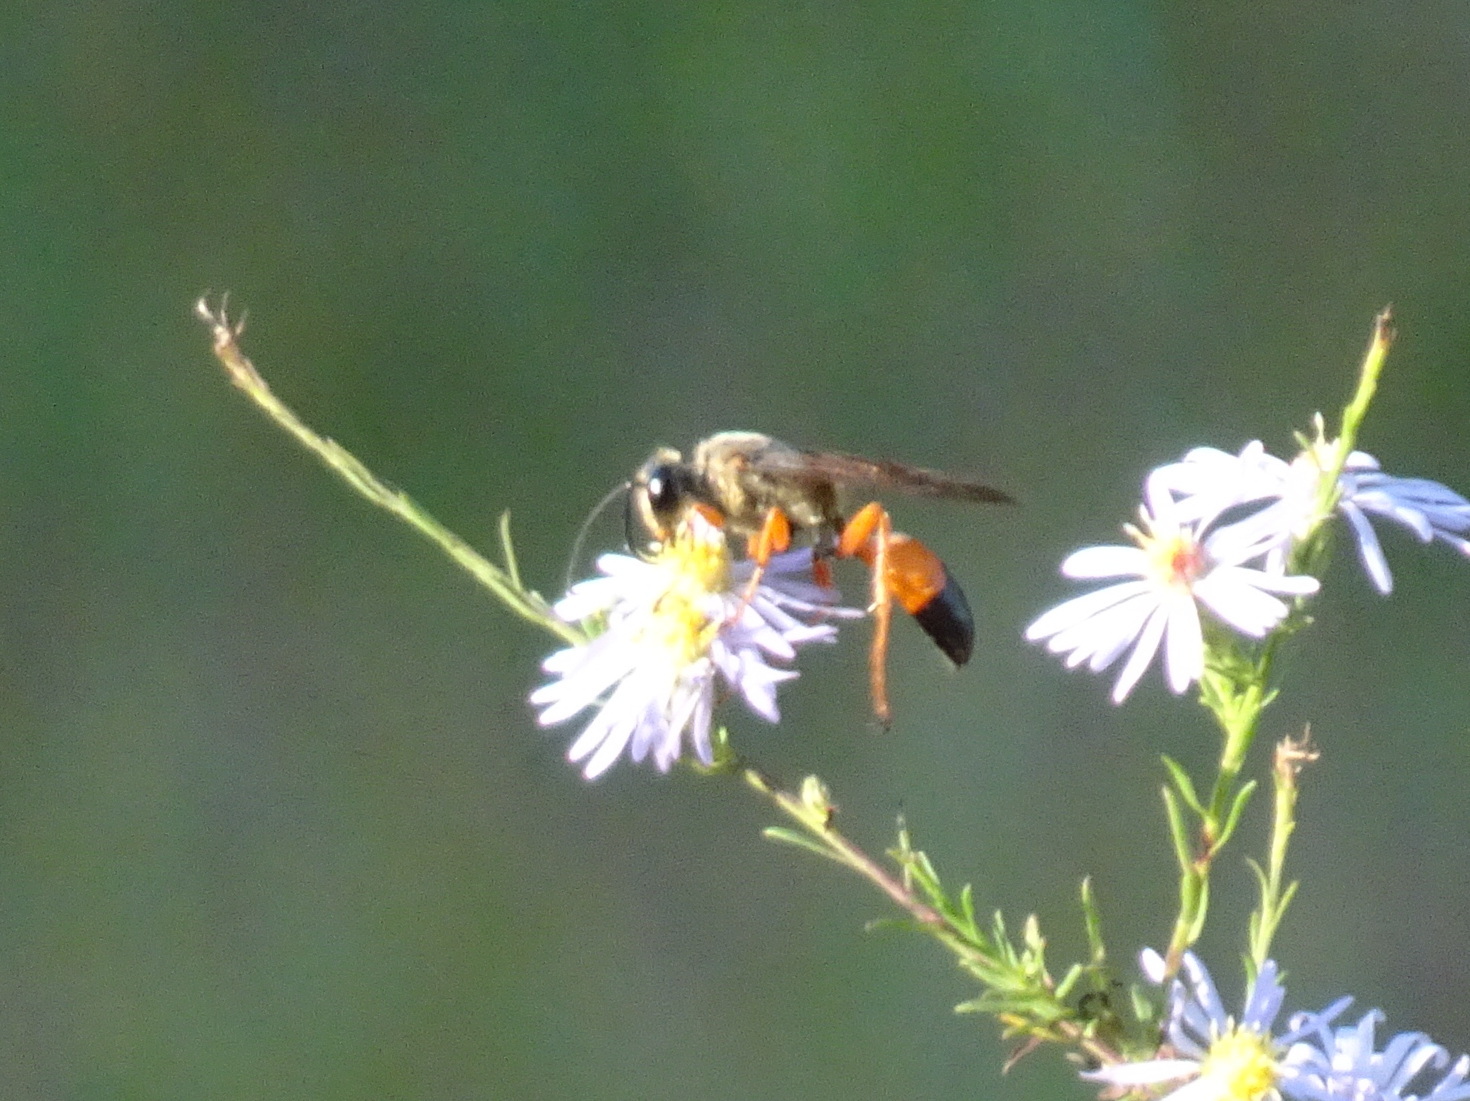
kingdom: Animalia
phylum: Arthropoda
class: Insecta
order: Hymenoptera
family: Sphecidae
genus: Sphex
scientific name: Sphex ichneumoneus
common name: Great golden digger wasp
